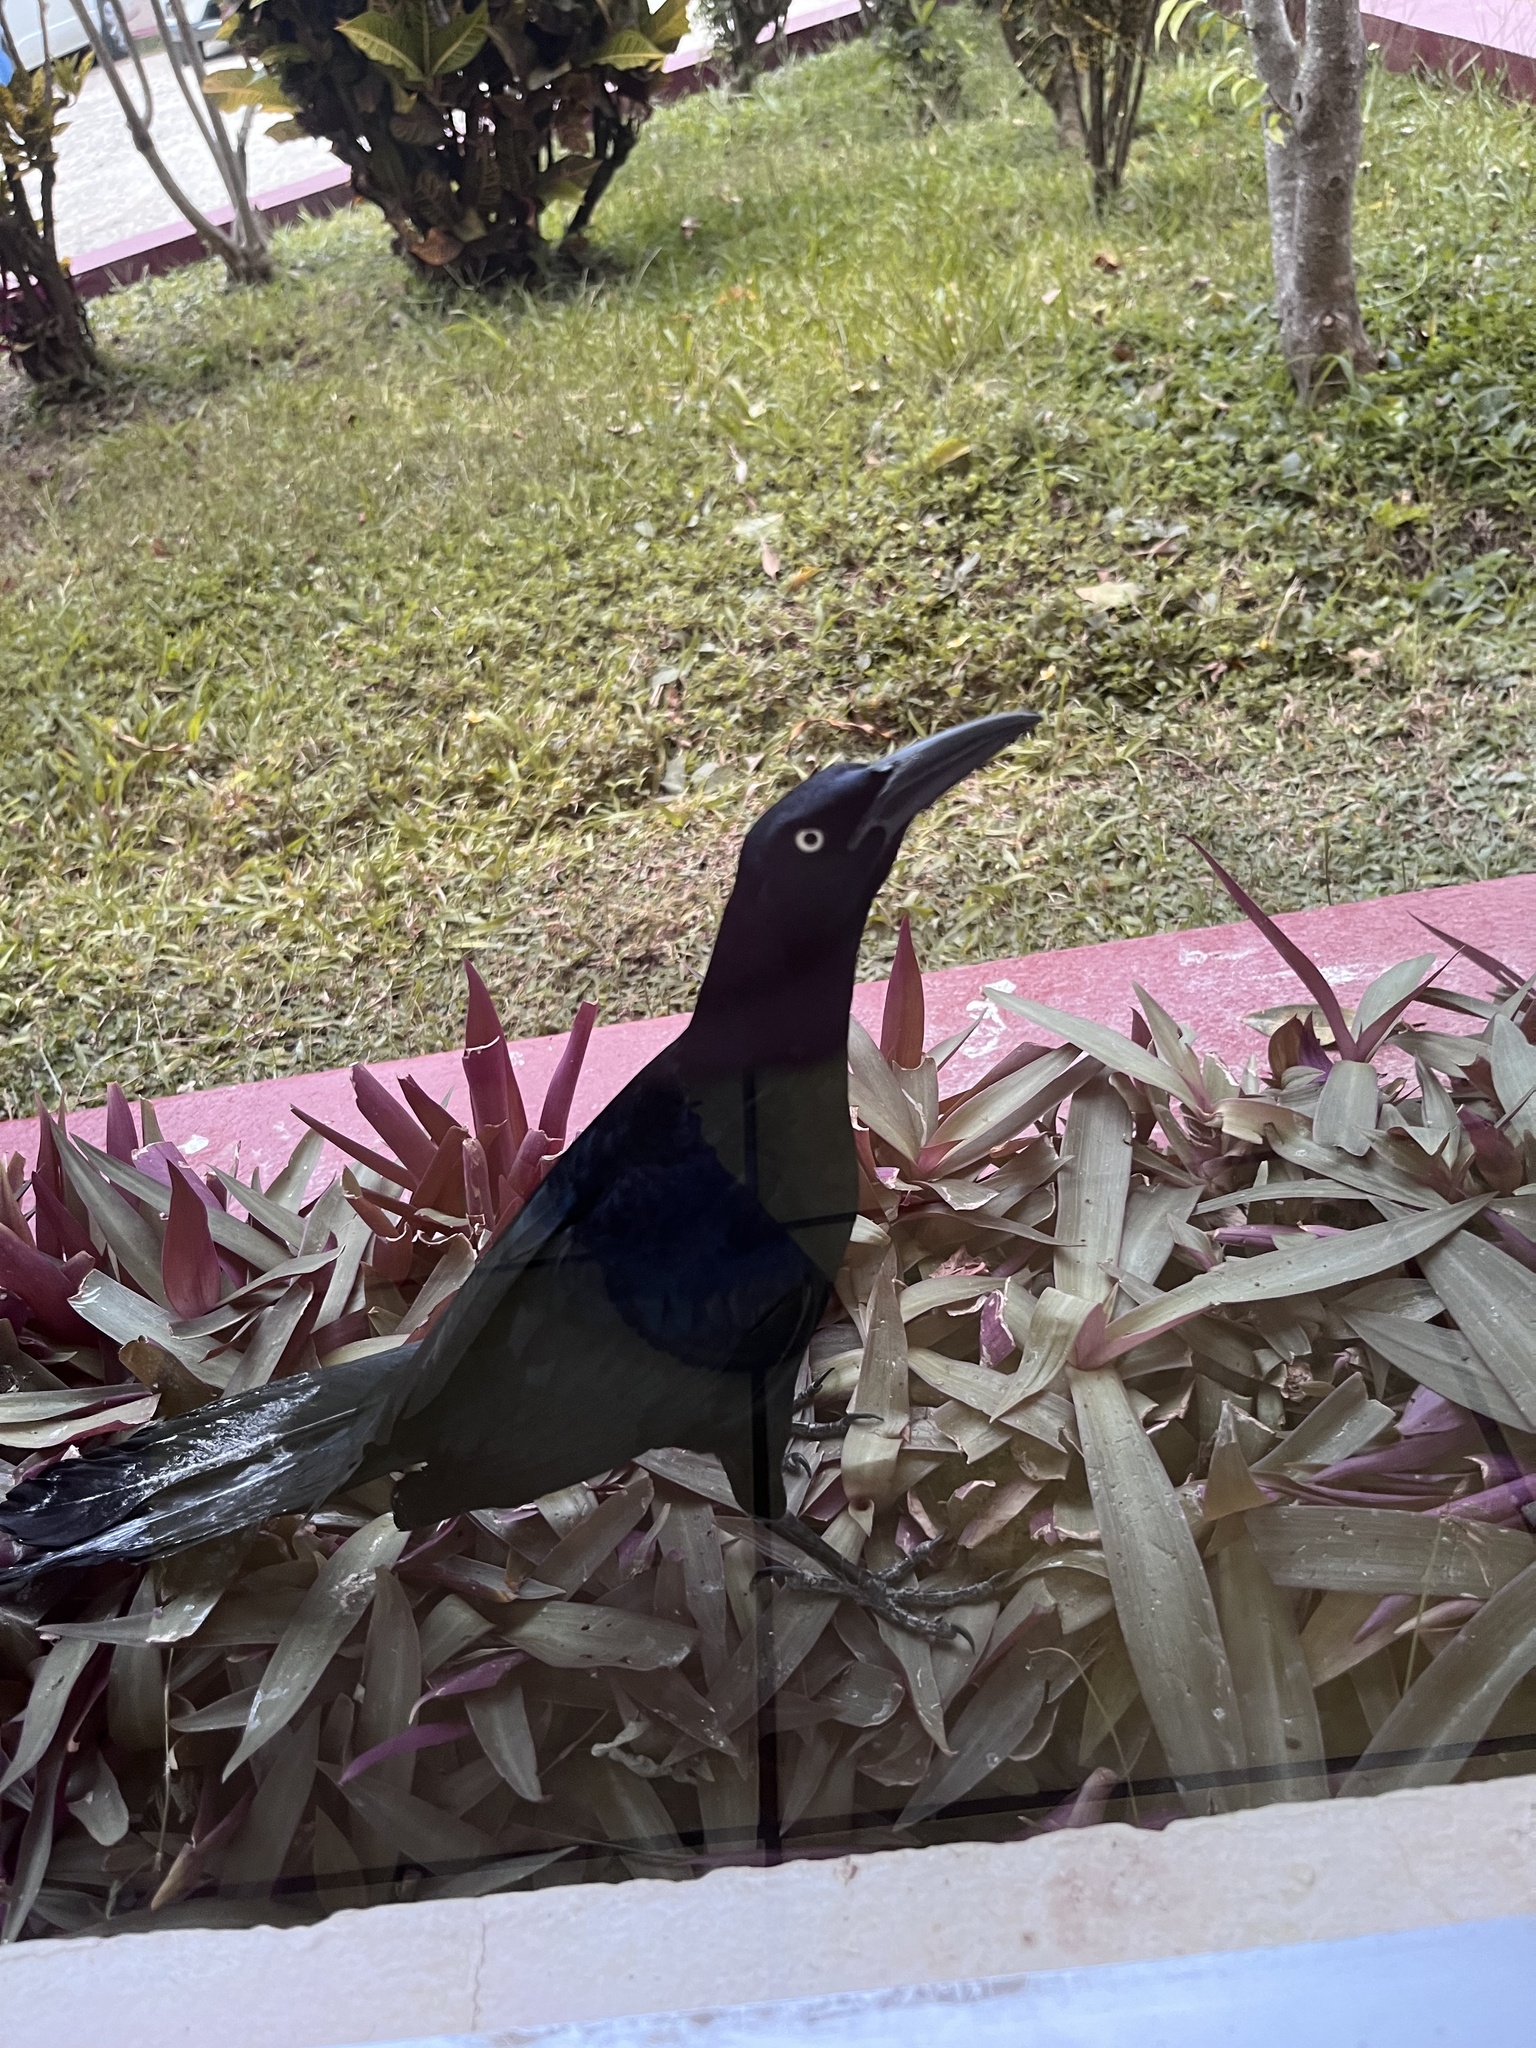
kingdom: Animalia
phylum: Chordata
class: Aves
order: Passeriformes
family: Icteridae
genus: Quiscalus
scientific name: Quiscalus mexicanus
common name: Great-tailed grackle
